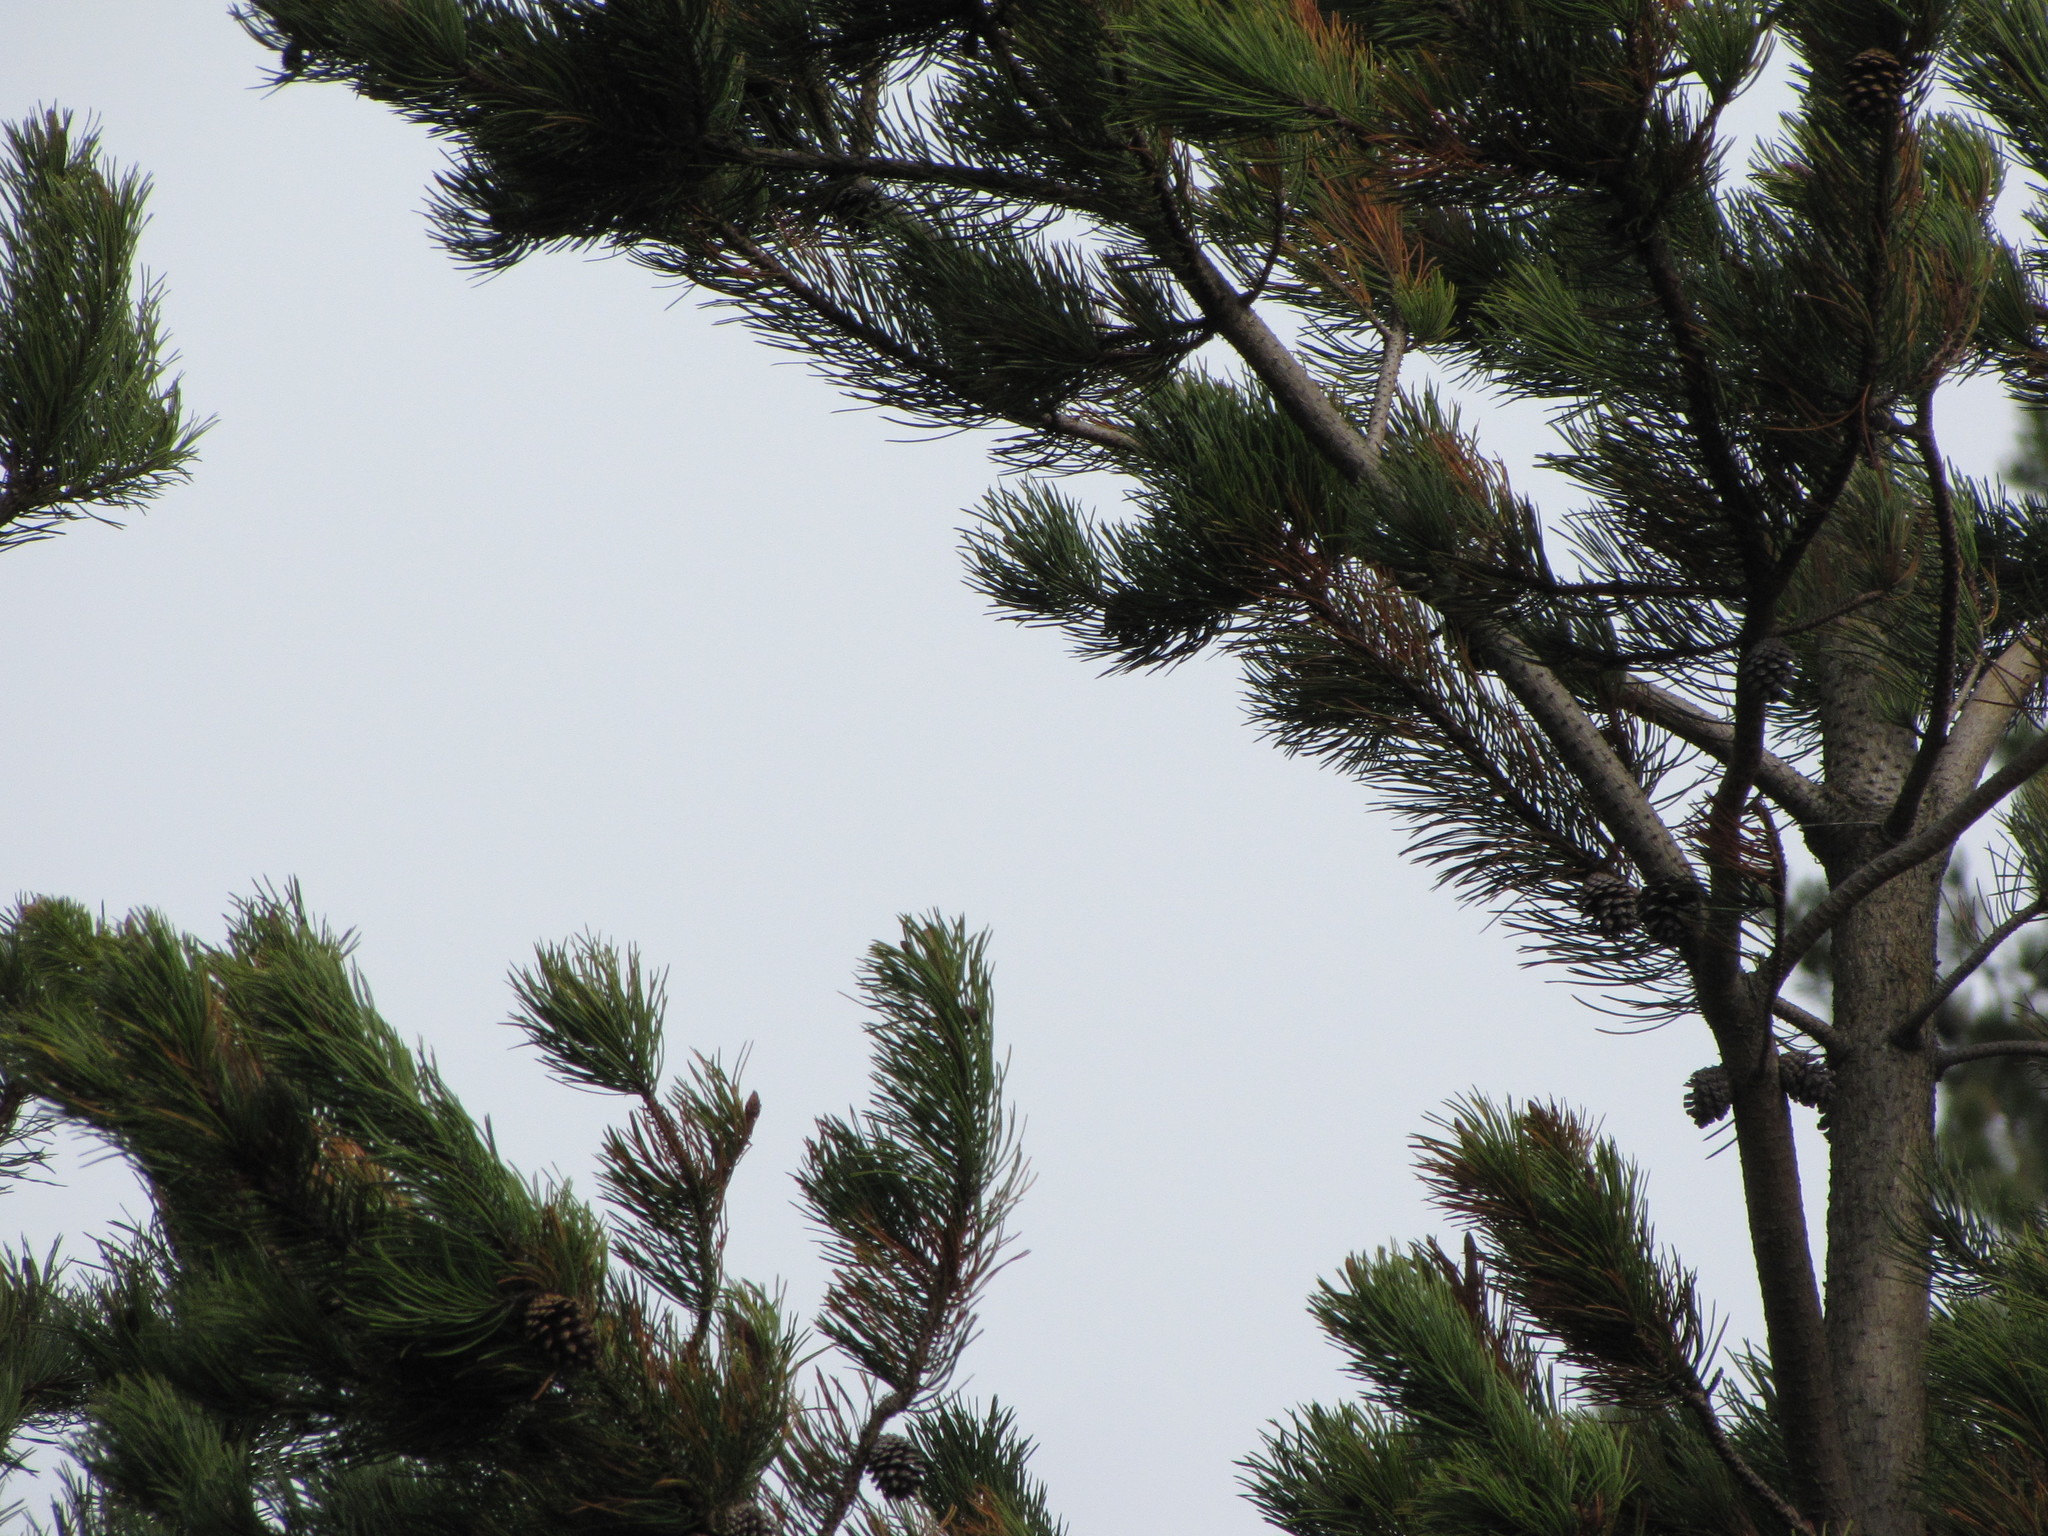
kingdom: Plantae
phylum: Tracheophyta
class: Pinopsida
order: Pinales
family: Pinaceae
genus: Pinus
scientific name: Pinus contorta
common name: Lodgepole pine
